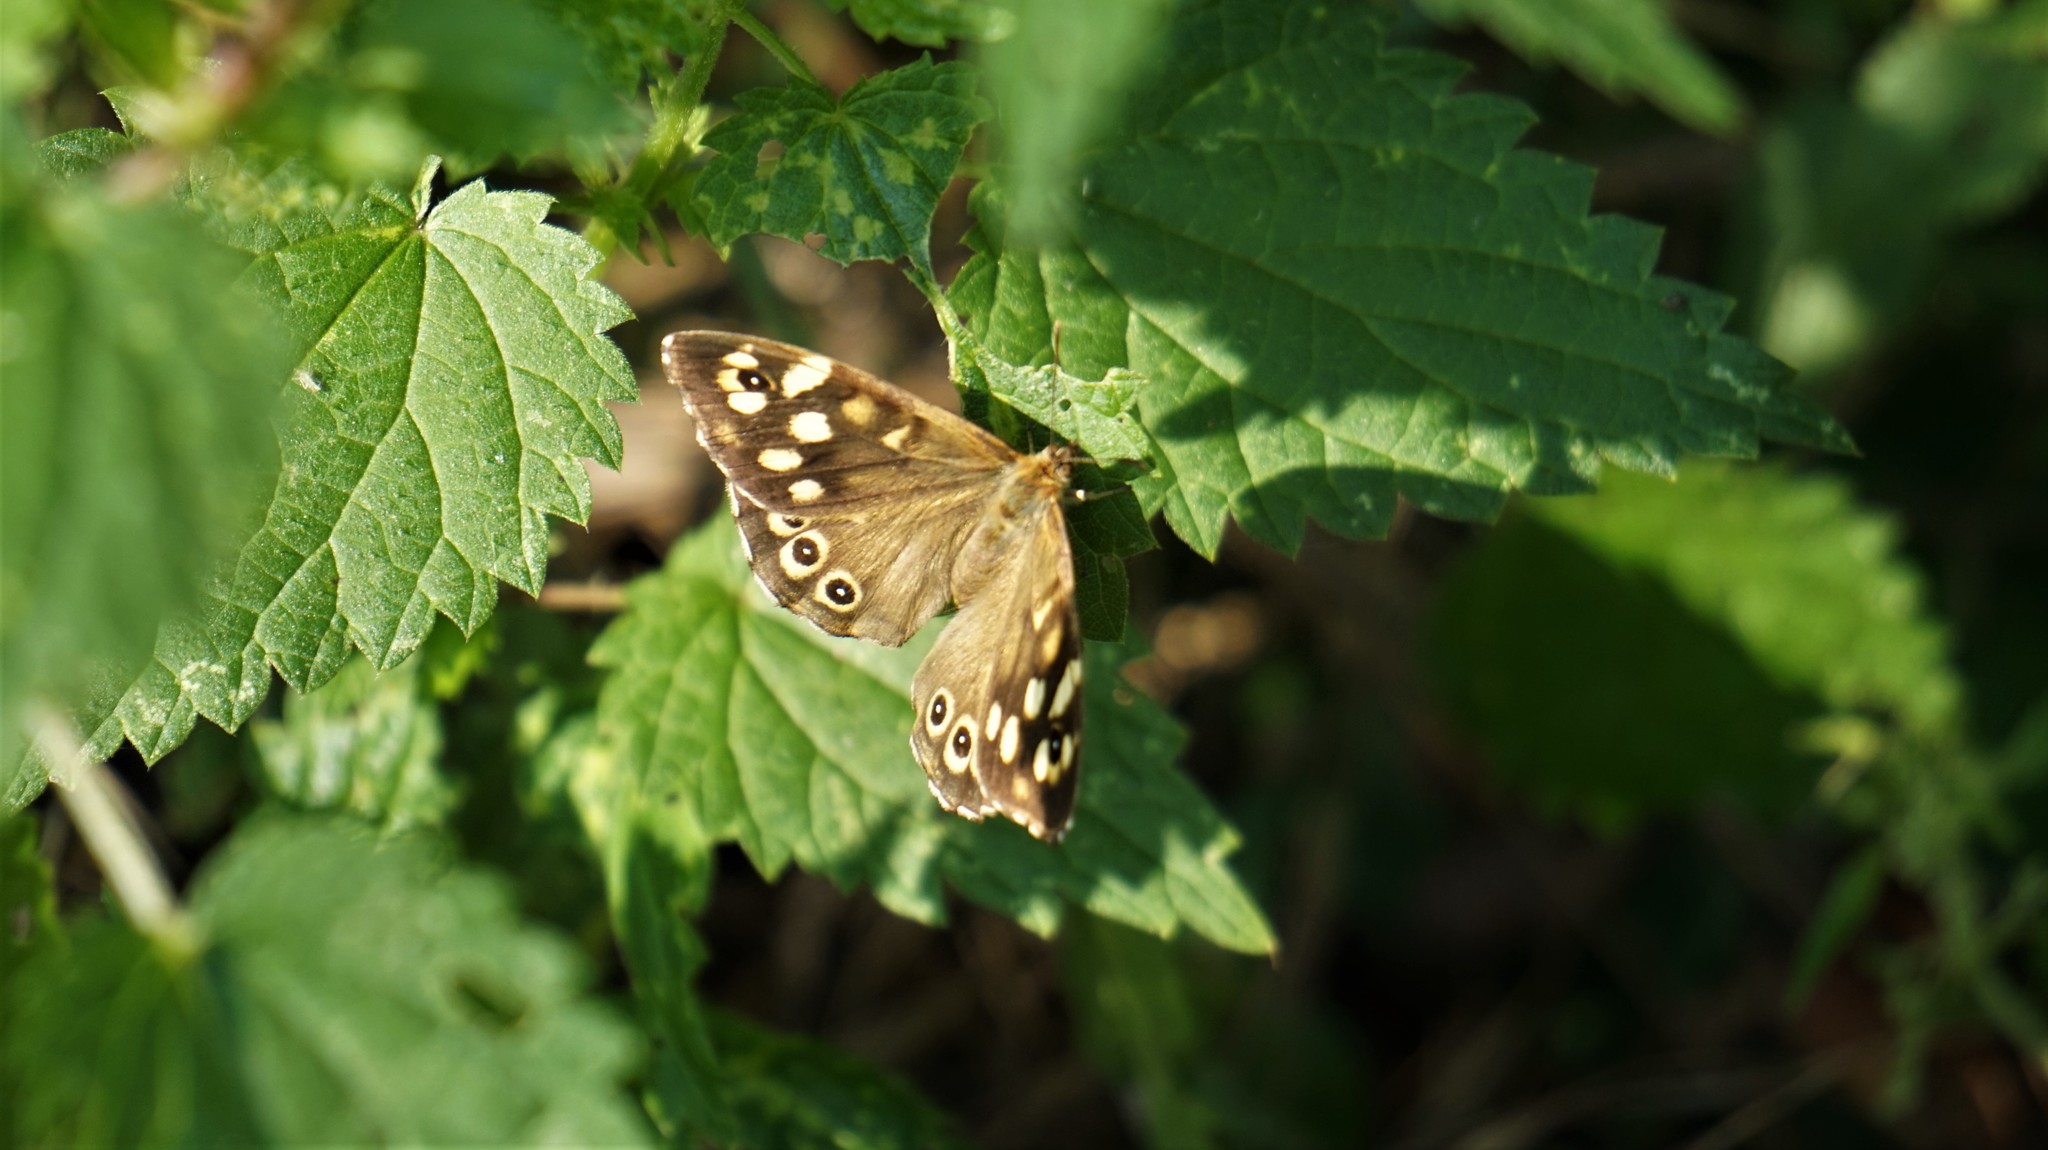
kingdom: Animalia
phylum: Arthropoda
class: Insecta
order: Lepidoptera
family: Nymphalidae
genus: Pararge
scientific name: Pararge aegeria
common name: Speckled wood
